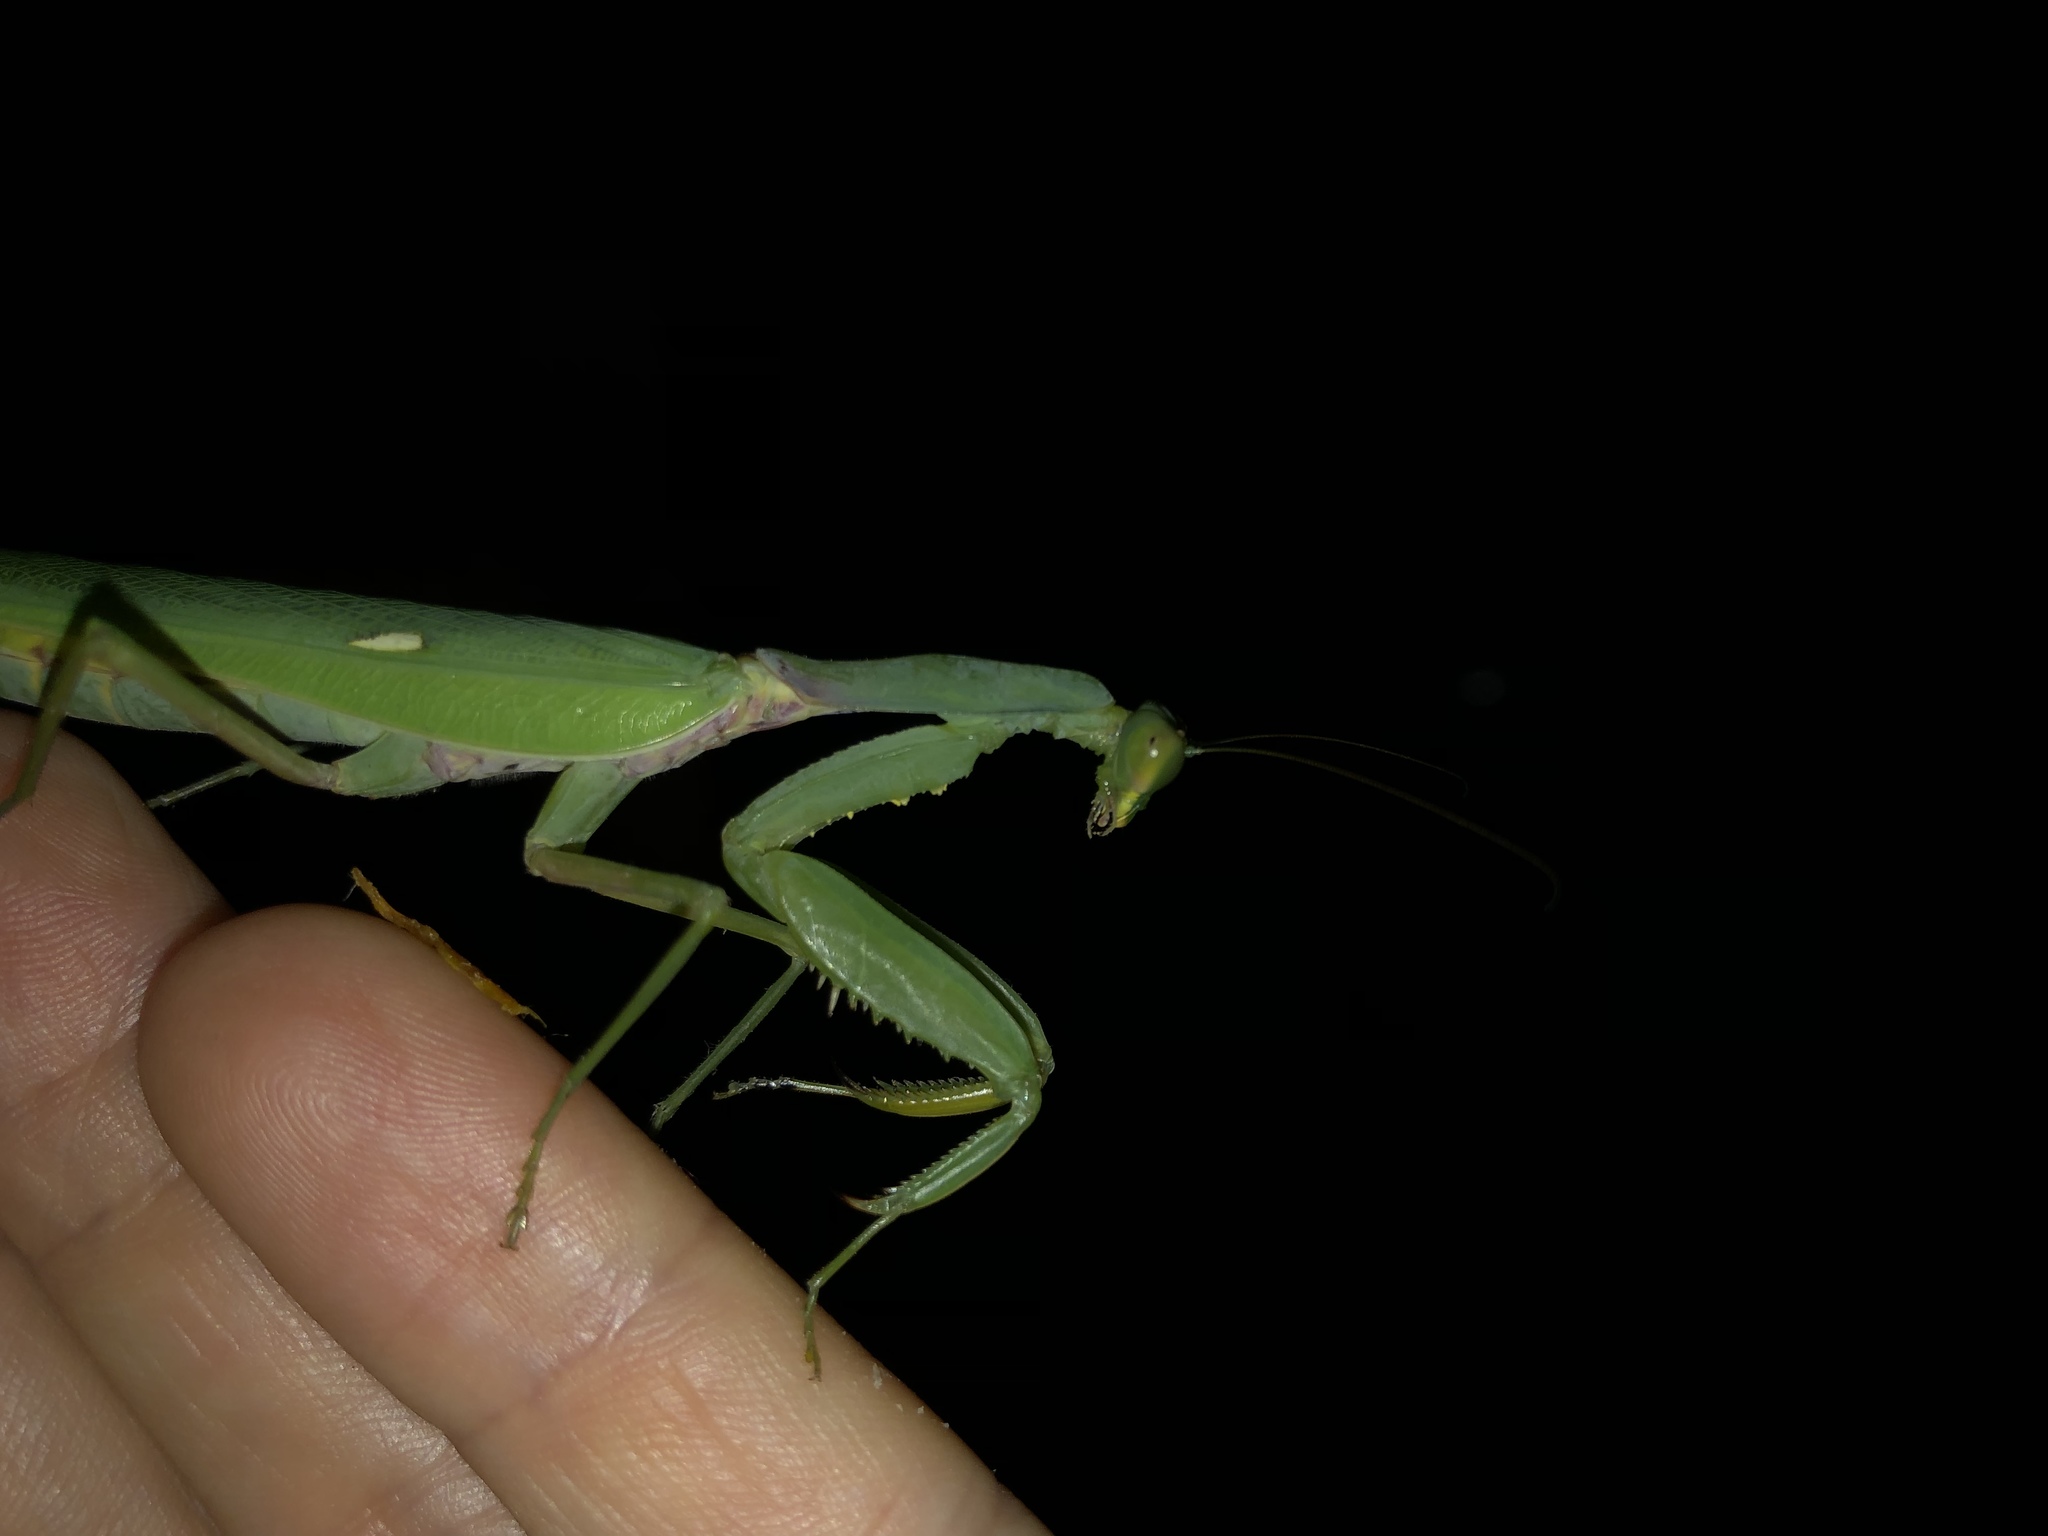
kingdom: Animalia
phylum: Arthropoda
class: Insecta
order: Mantodea
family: Mantidae
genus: Hierodula
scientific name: Hierodula patellifera
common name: Asian mantis
